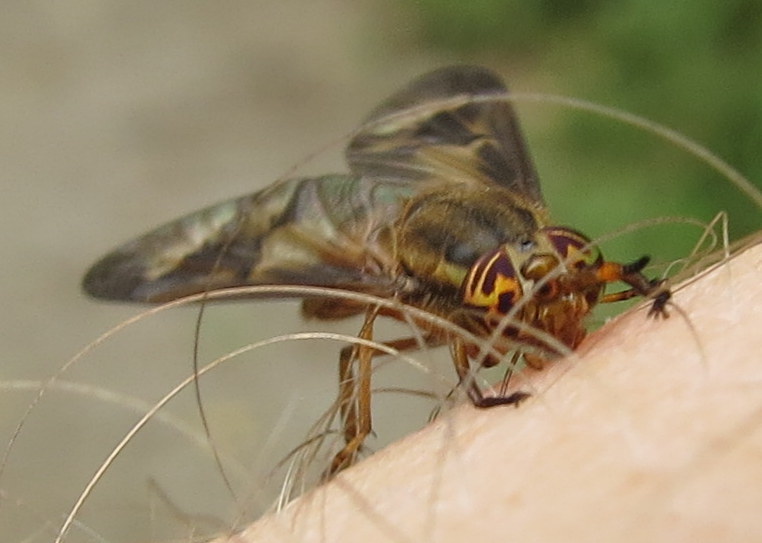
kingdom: Animalia
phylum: Arthropoda
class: Insecta
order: Diptera
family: Tabanidae
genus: Chrysops
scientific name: Chrysops brunneus
